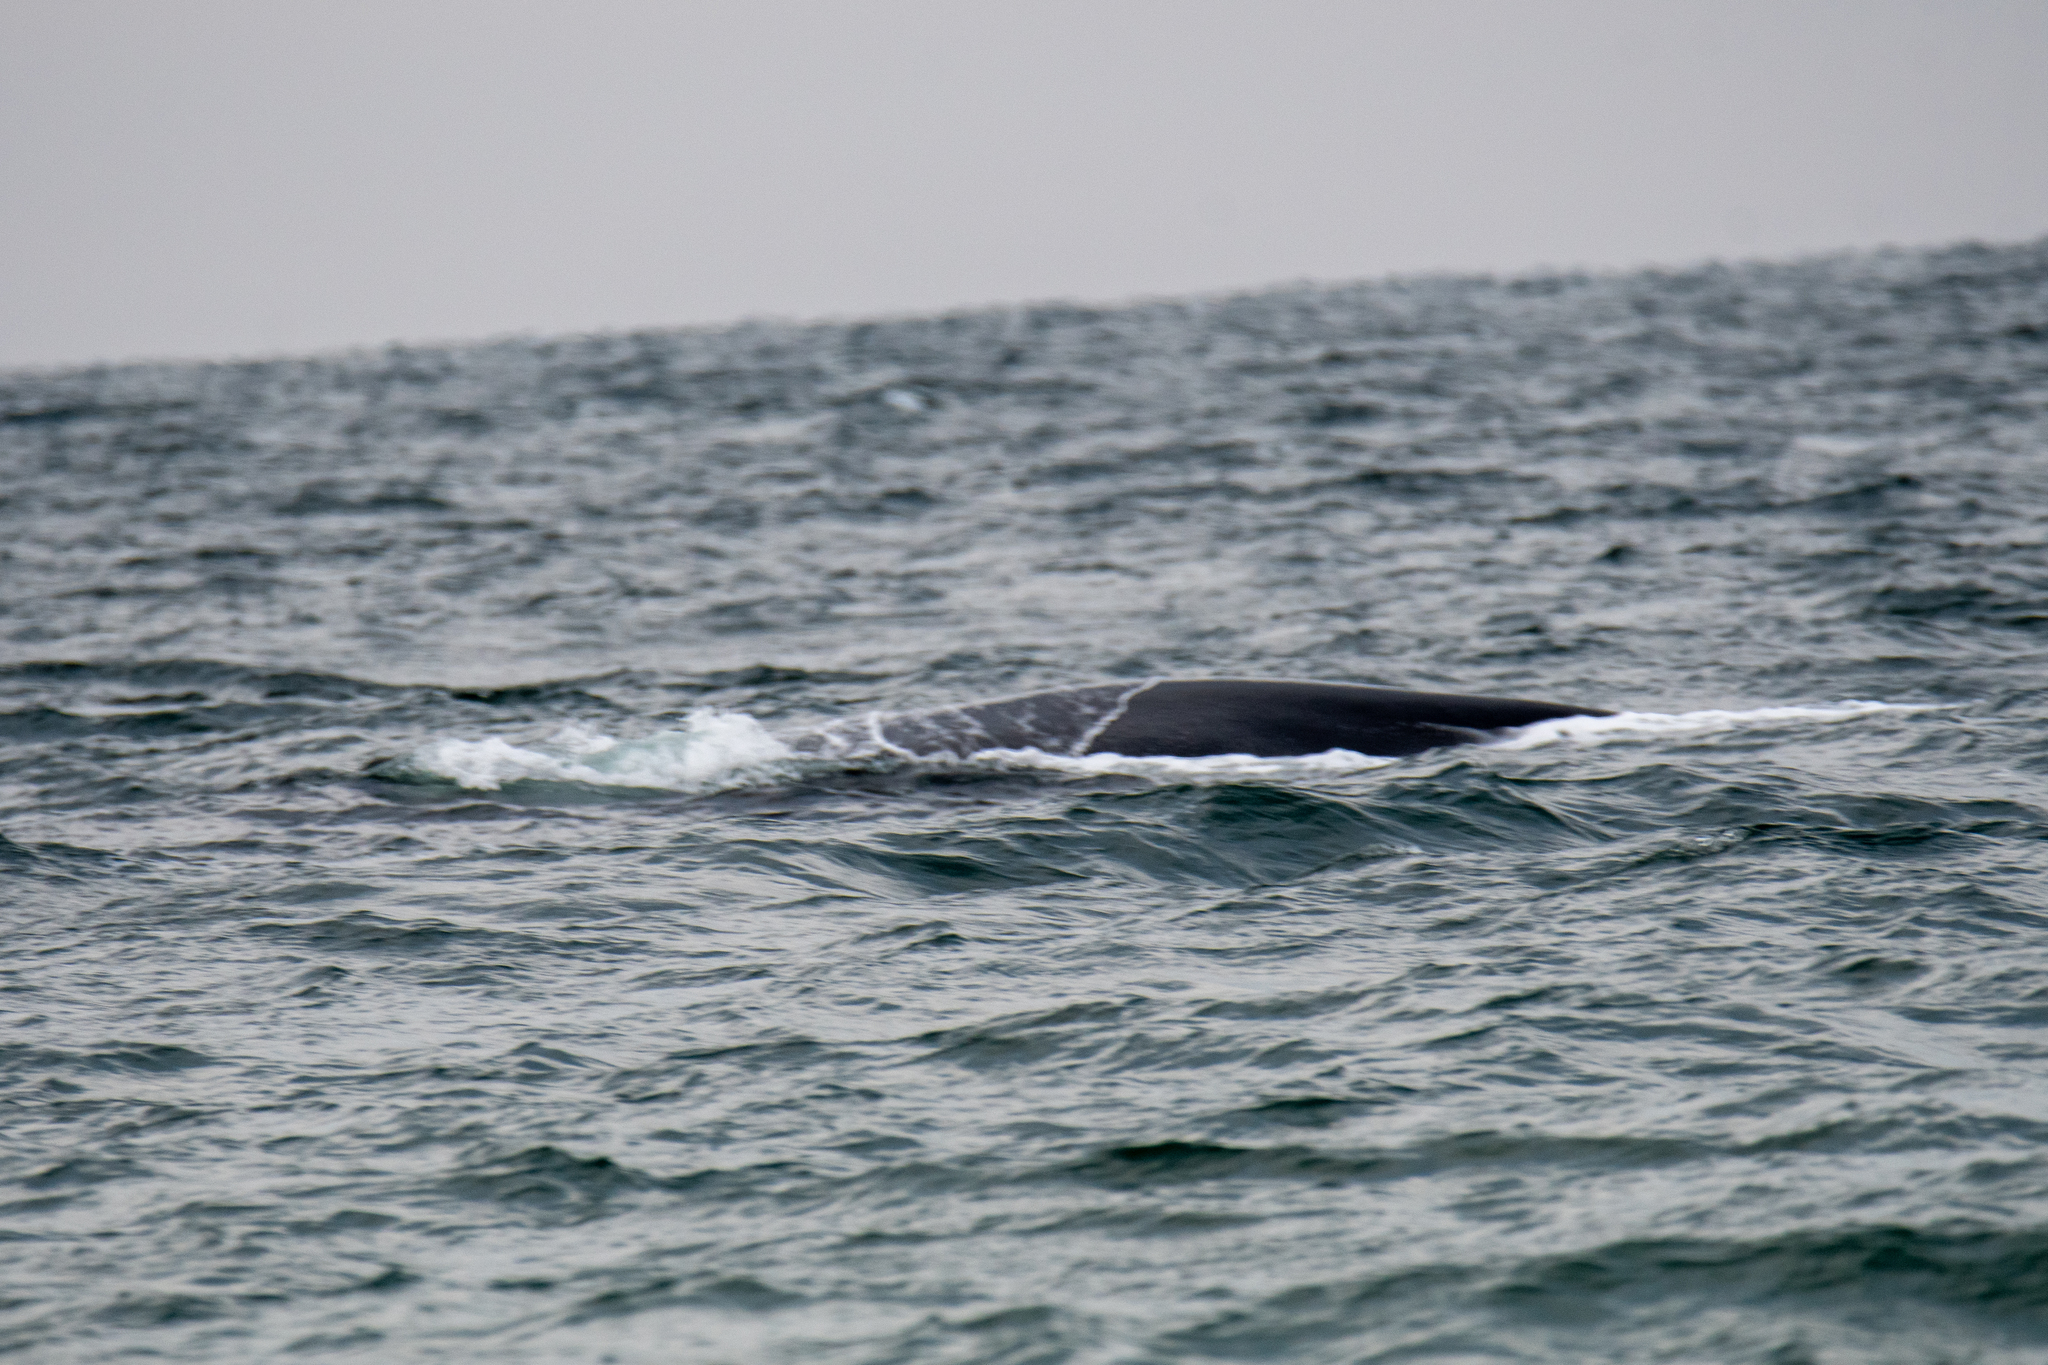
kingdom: Animalia
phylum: Chordata
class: Mammalia
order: Cetacea
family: Balaenidae
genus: Eubalaena
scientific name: Eubalaena glacialis
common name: North atlantic right whale
